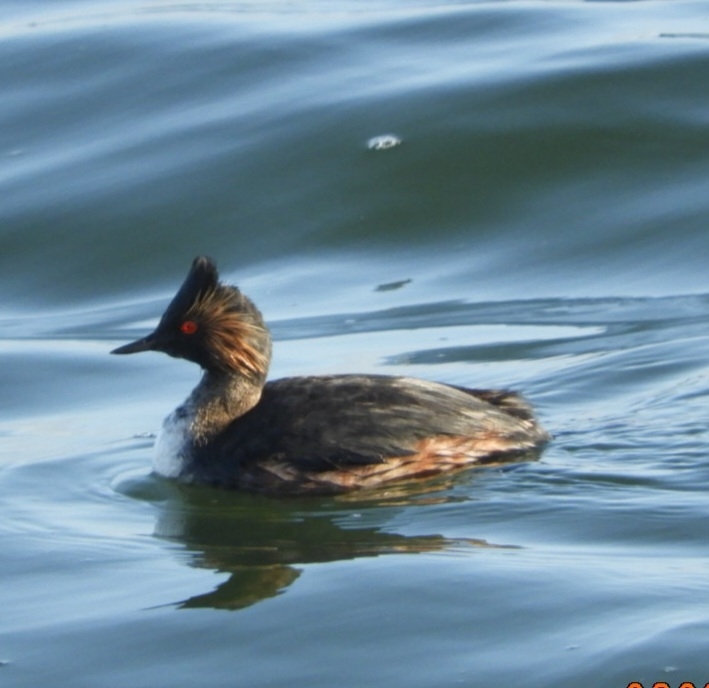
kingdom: Animalia
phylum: Chordata
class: Aves
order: Podicipediformes
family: Podicipedidae
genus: Podiceps
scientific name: Podiceps nigricollis
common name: Black-necked grebe
